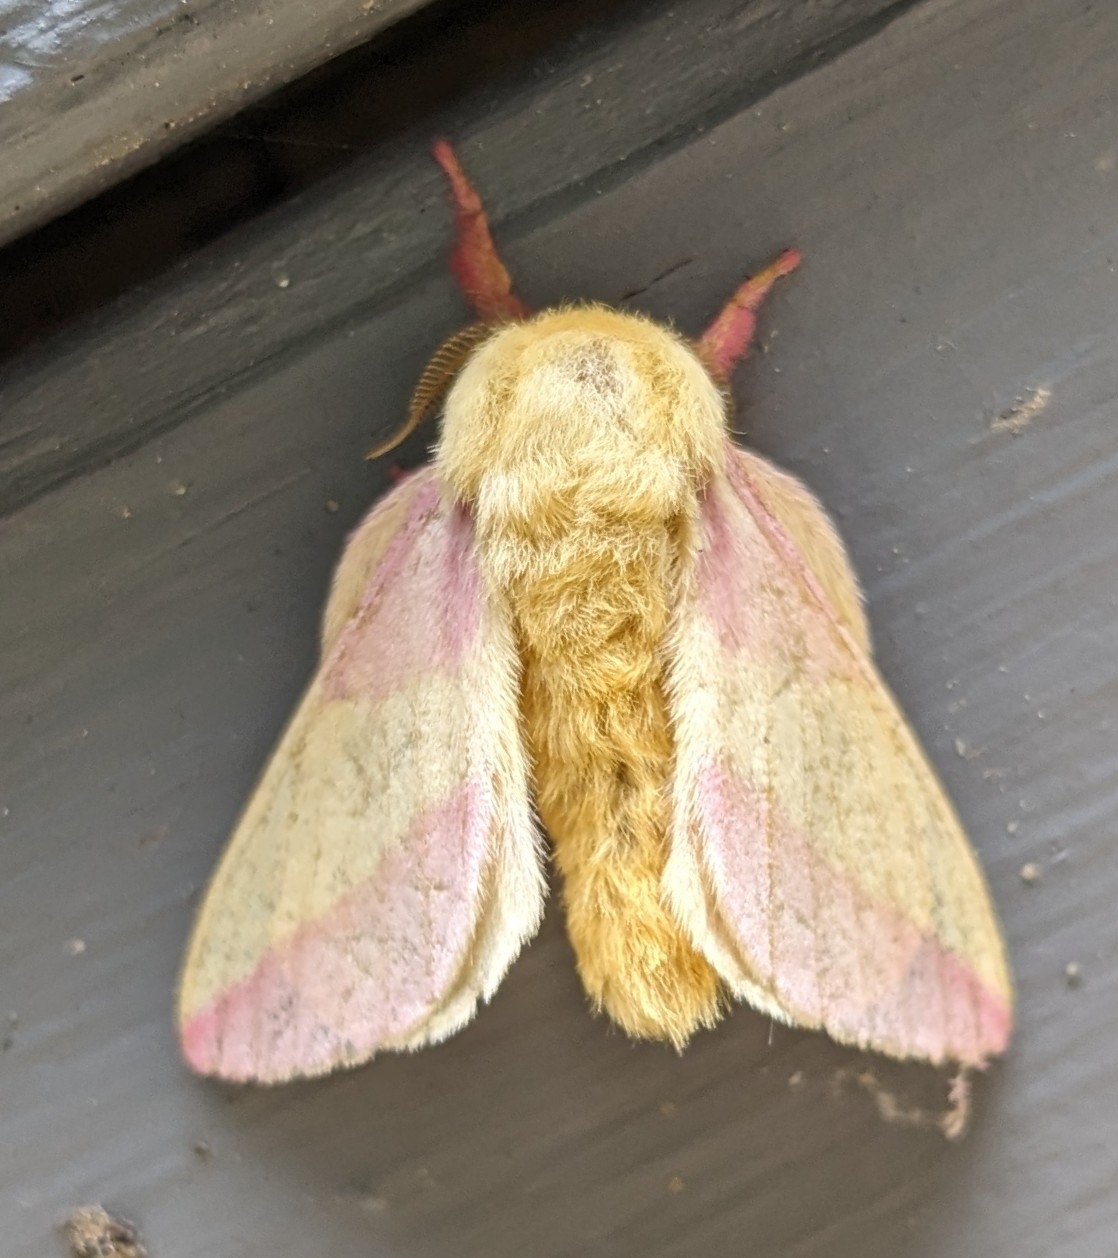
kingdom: Animalia
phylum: Arthropoda
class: Insecta
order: Lepidoptera
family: Saturniidae
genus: Dryocampa
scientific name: Dryocampa rubicunda
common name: Rosy maple moth
